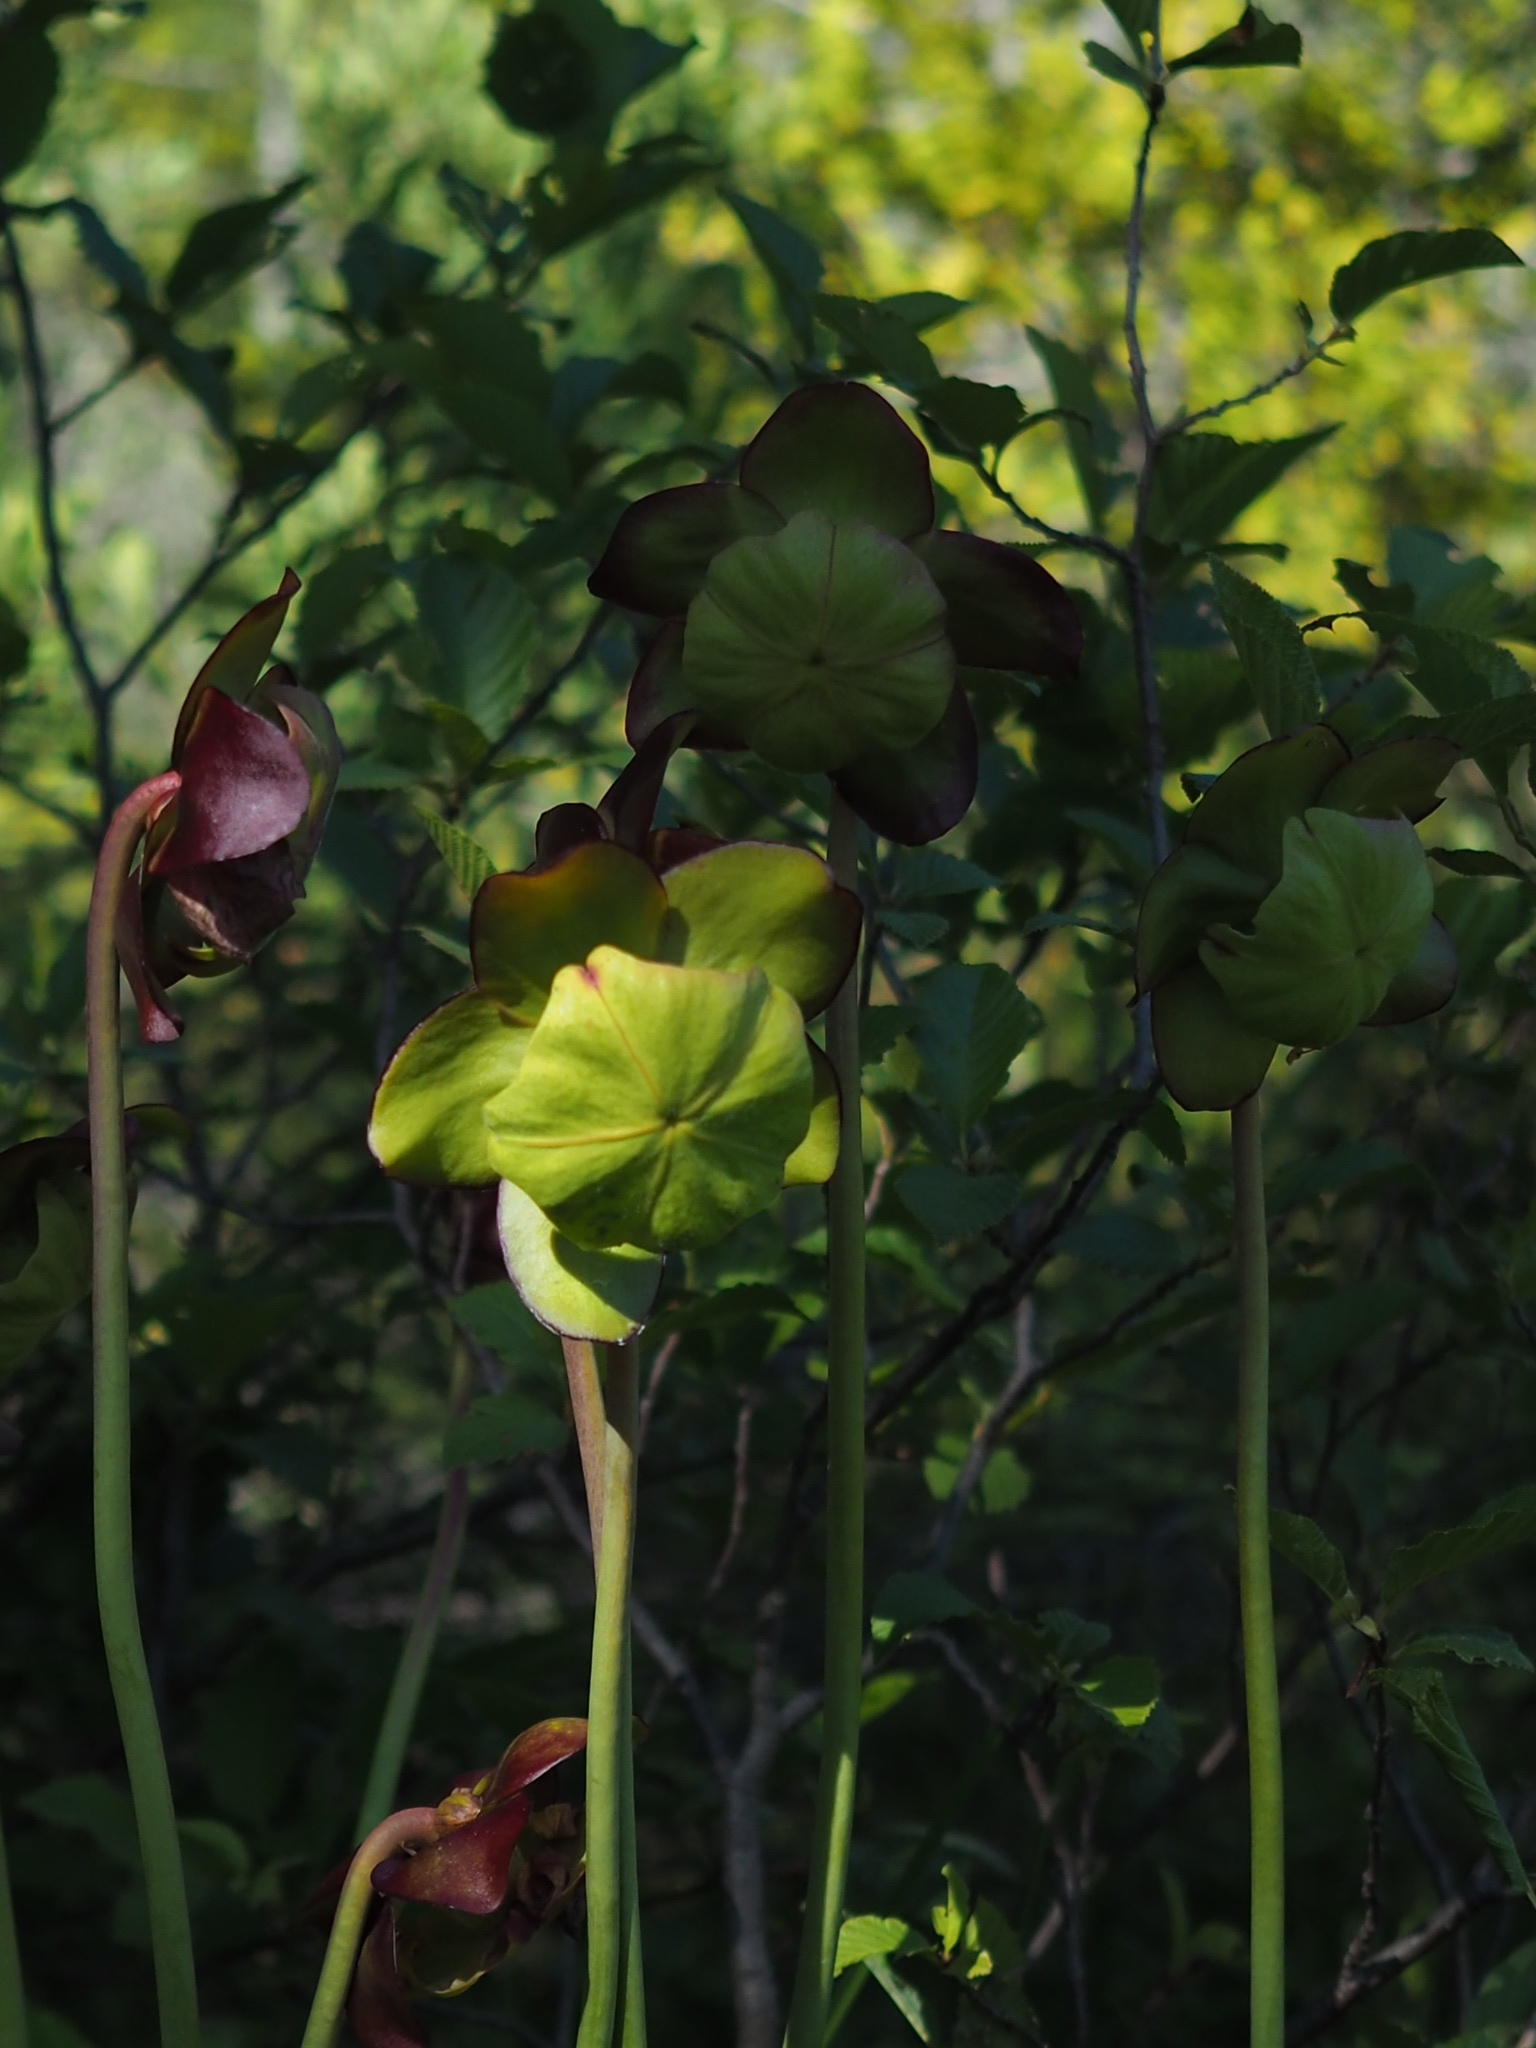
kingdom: Plantae
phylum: Tracheophyta
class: Magnoliopsida
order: Ericales
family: Sarraceniaceae
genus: Sarracenia
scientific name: Sarracenia purpurea
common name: Pitcherplant
